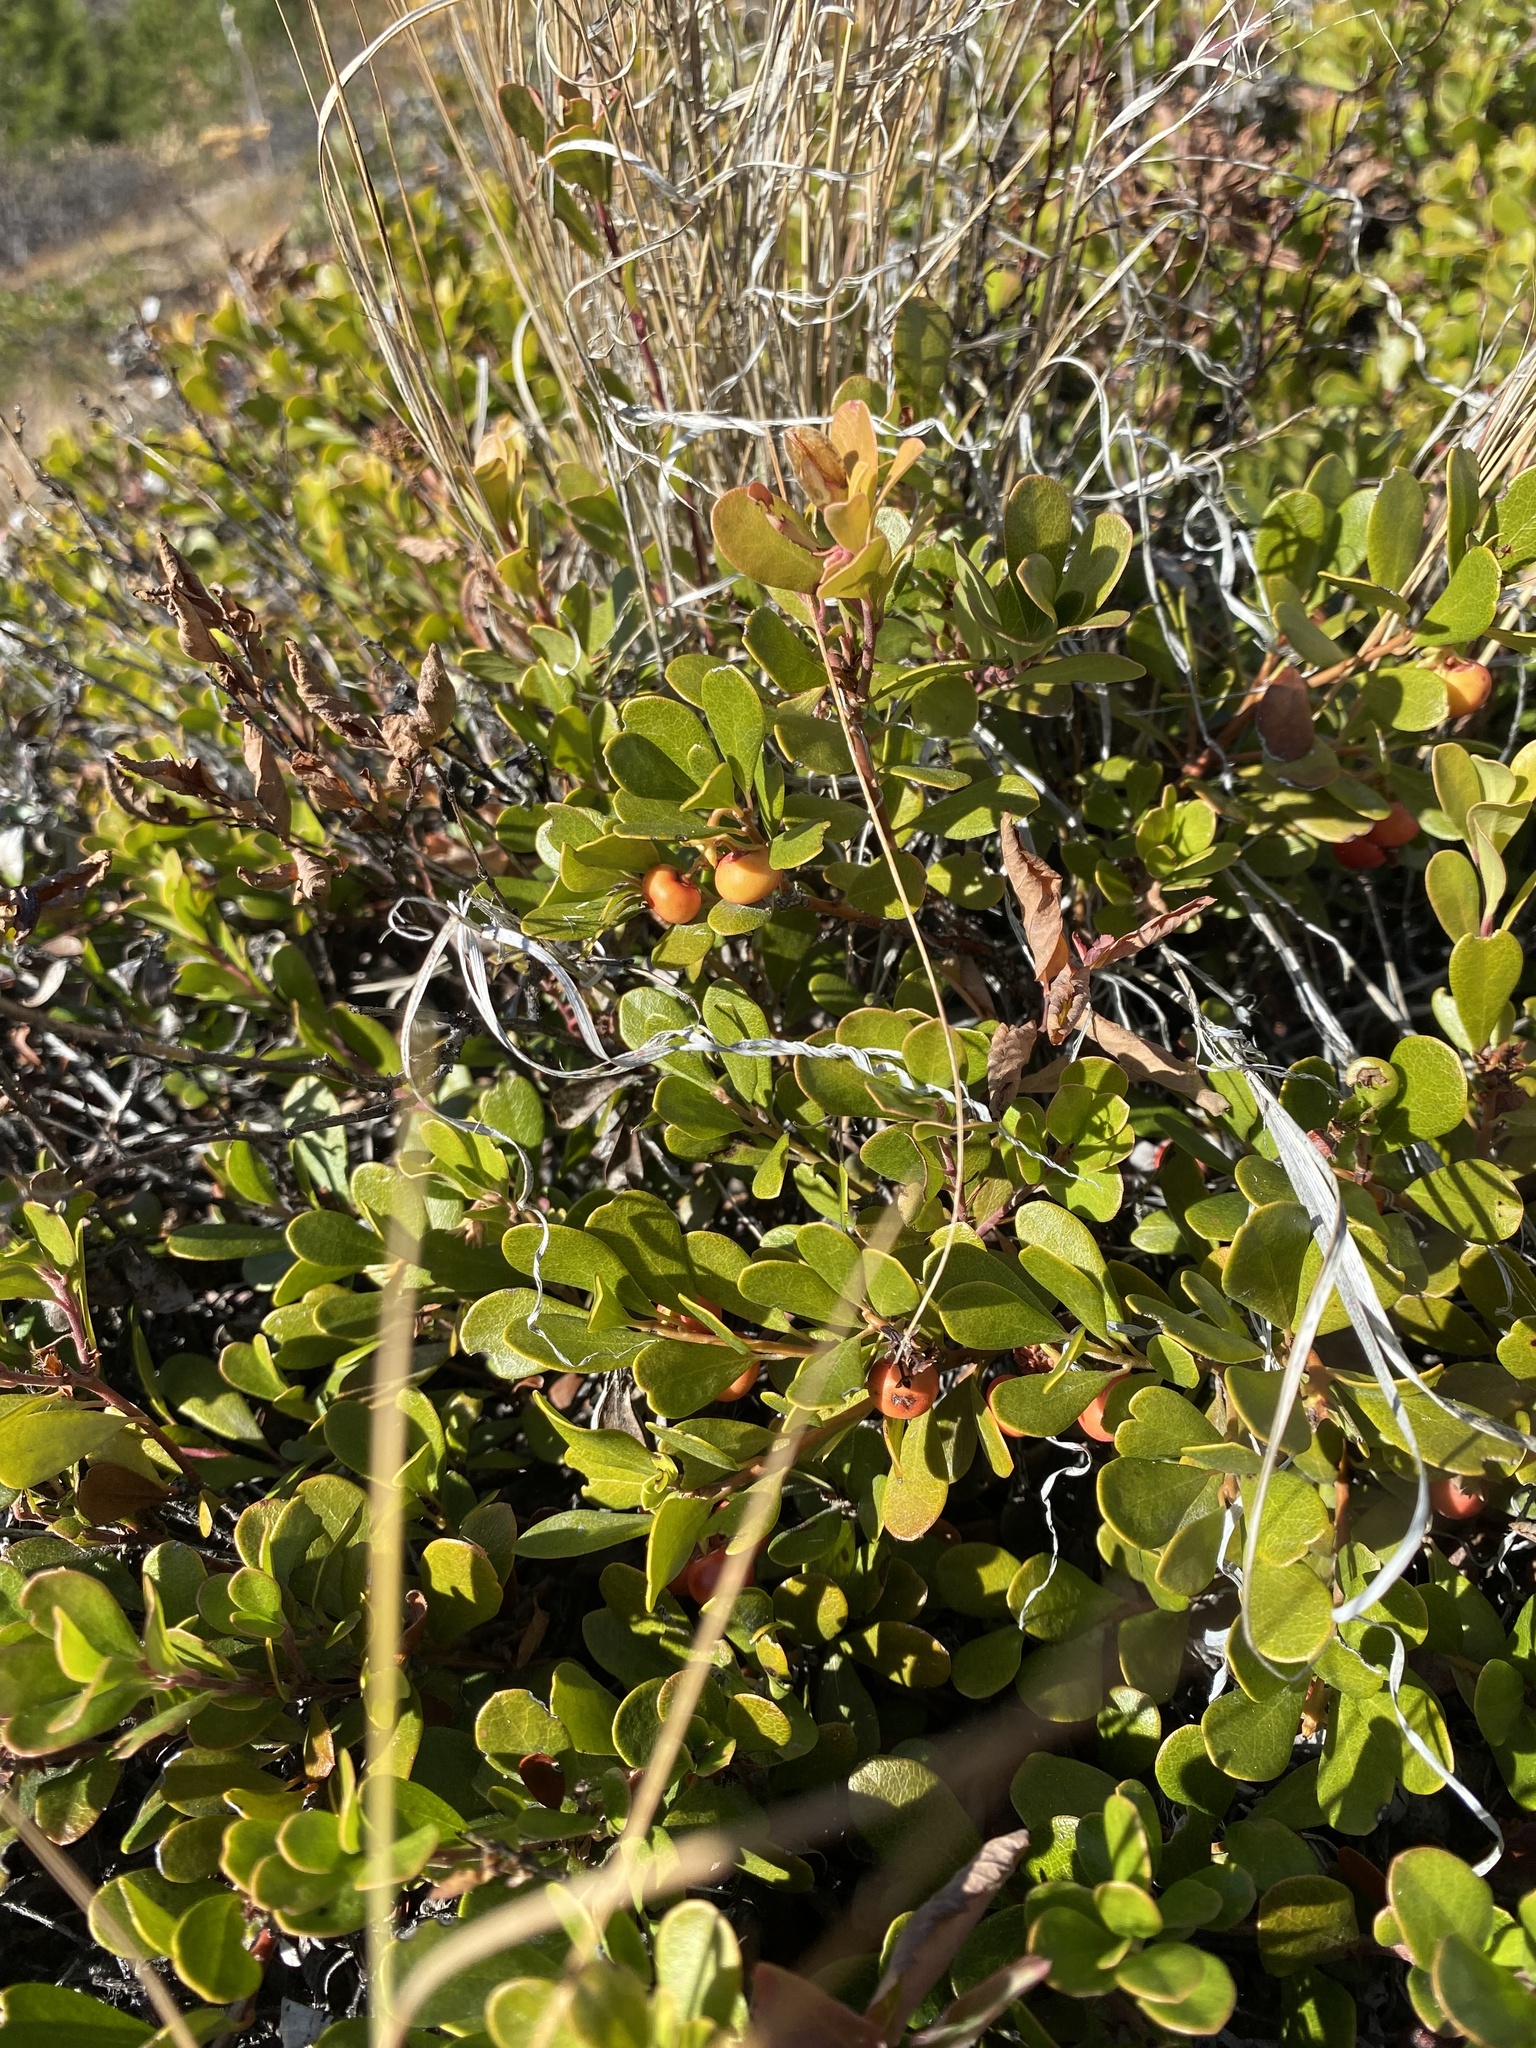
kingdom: Plantae
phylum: Tracheophyta
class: Magnoliopsida
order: Ericales
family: Ericaceae
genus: Arctostaphylos
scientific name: Arctostaphylos uva-ursi
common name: Bearberry
